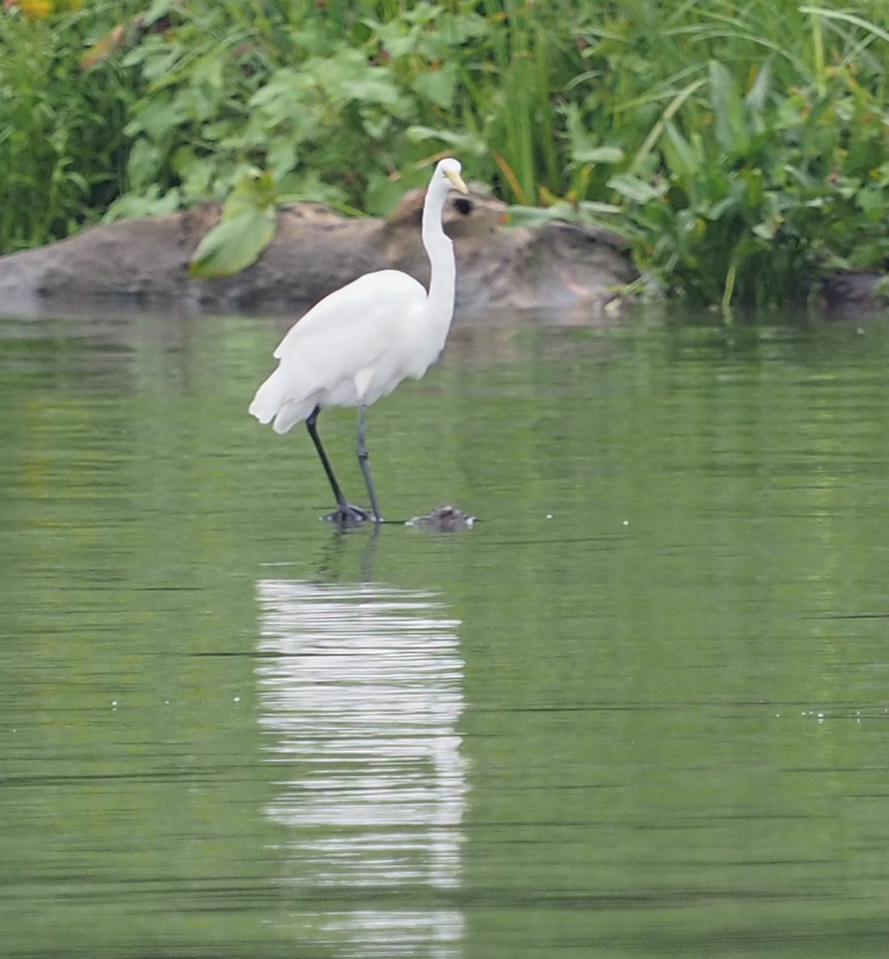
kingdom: Animalia
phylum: Chordata
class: Aves
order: Pelecaniformes
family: Ardeidae
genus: Ardea
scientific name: Ardea alba
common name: Great egret
